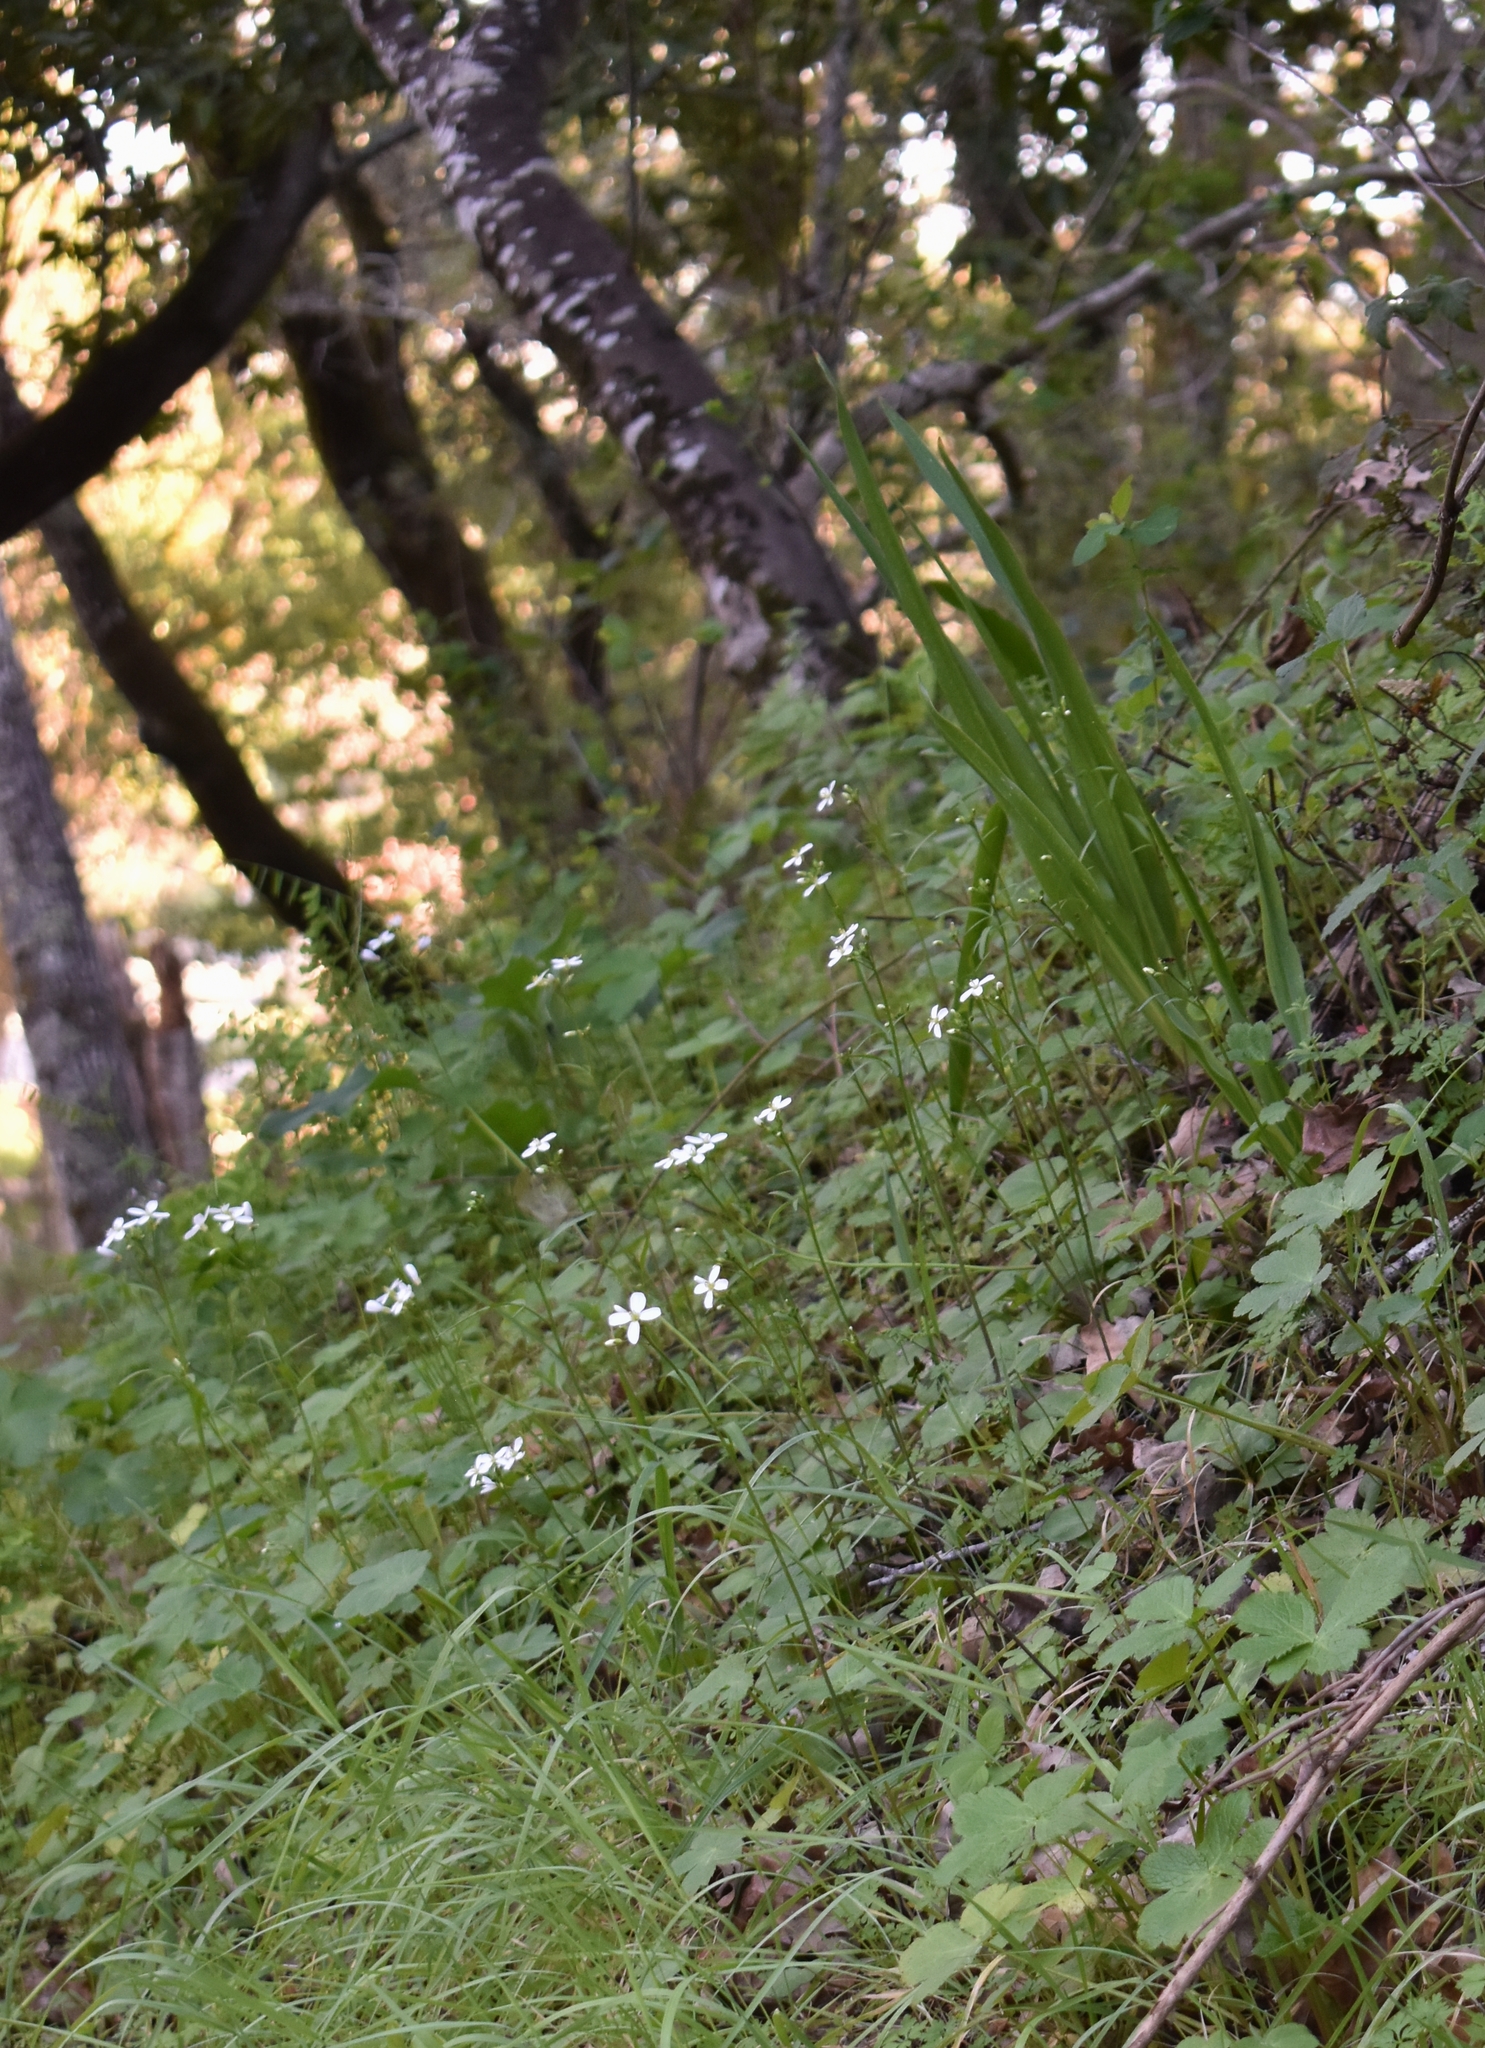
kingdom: Plantae
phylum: Tracheophyta
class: Magnoliopsida
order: Brassicales
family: Brassicaceae
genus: Cardamine
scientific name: Cardamine californica
